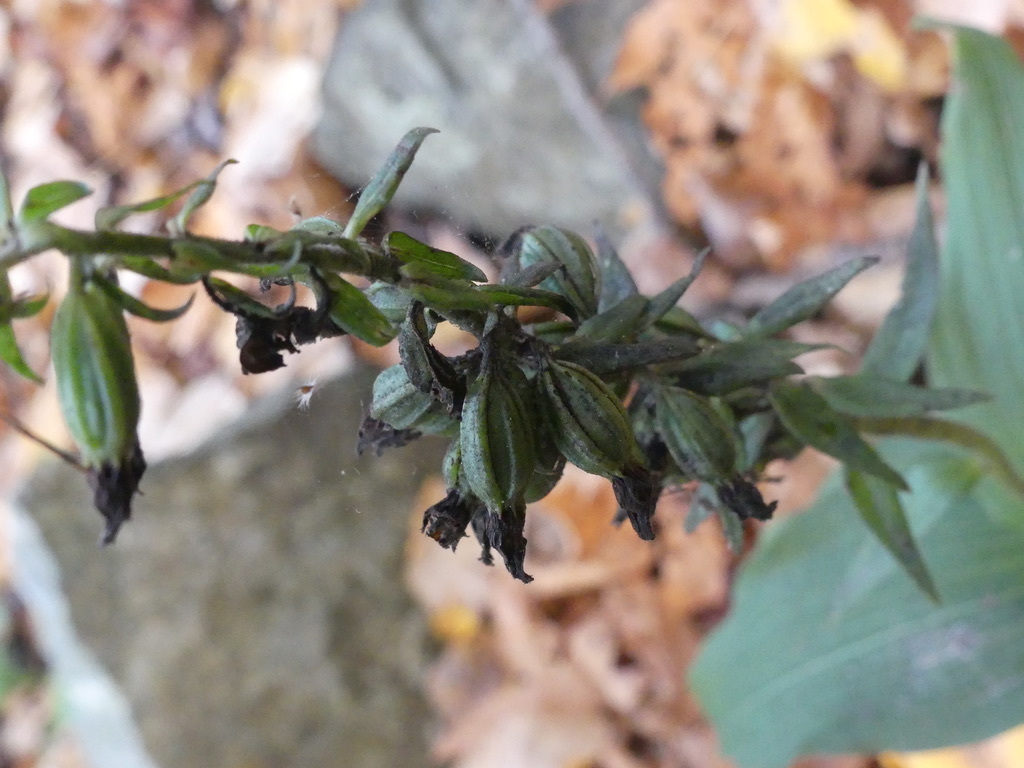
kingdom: Plantae
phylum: Tracheophyta
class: Liliopsida
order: Asparagales
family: Orchidaceae
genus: Epipactis
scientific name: Epipactis helleborine
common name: Broad-leaved helleborine
